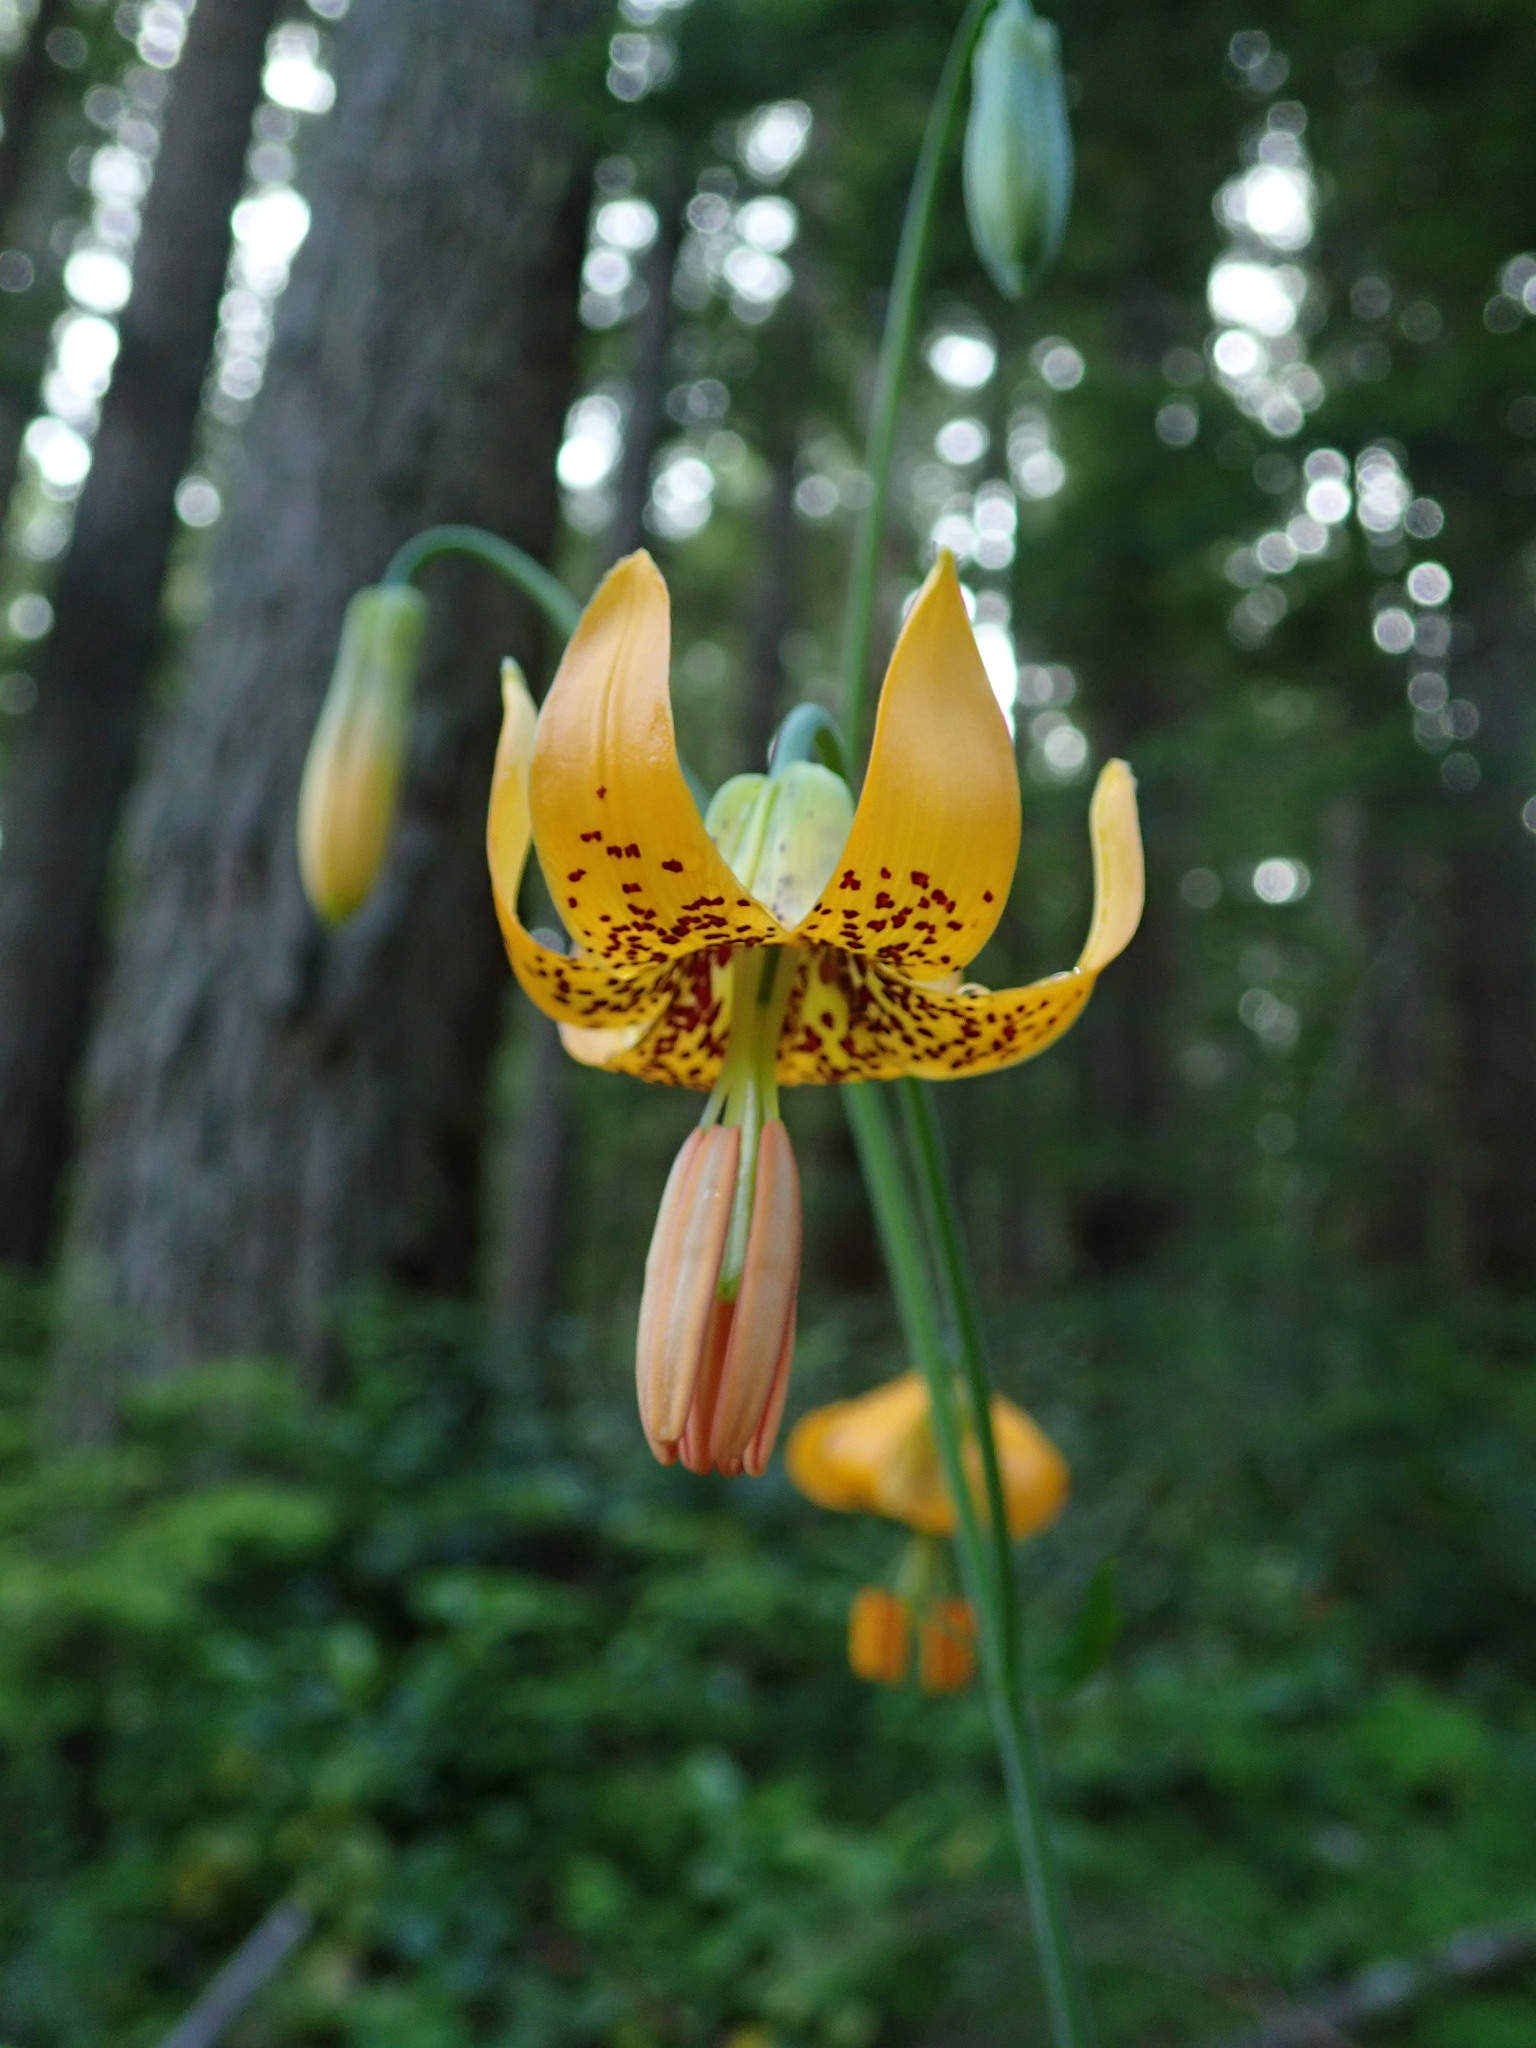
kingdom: Plantae
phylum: Tracheophyta
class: Liliopsida
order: Liliales
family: Liliaceae
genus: Lilium
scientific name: Lilium columbianum
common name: Columbia lily
